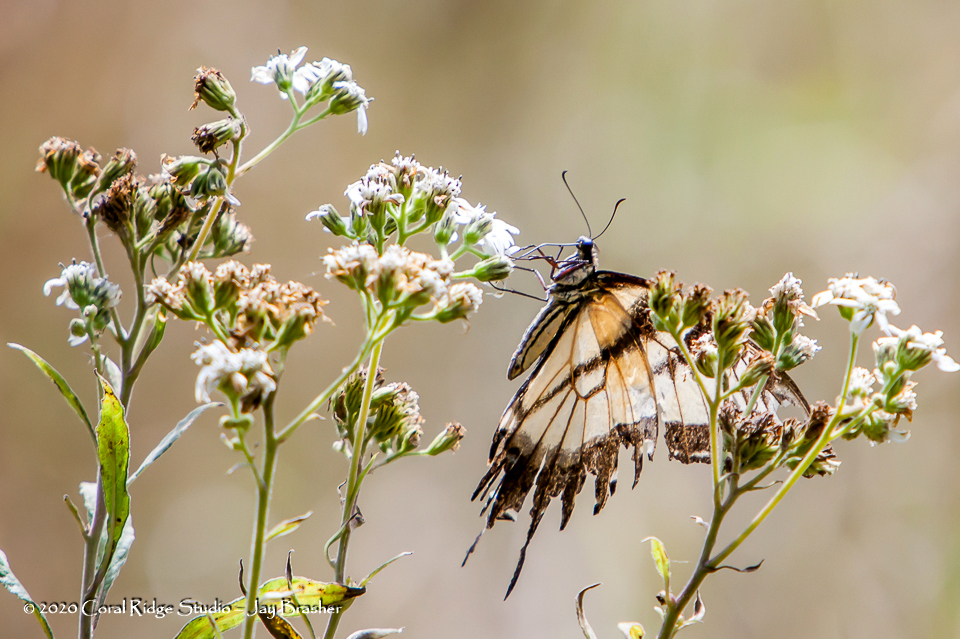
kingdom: Animalia
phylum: Arthropoda
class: Insecta
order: Lepidoptera
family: Papilionidae
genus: Papilio
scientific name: Papilio glaucus
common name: Tiger swallowtail
